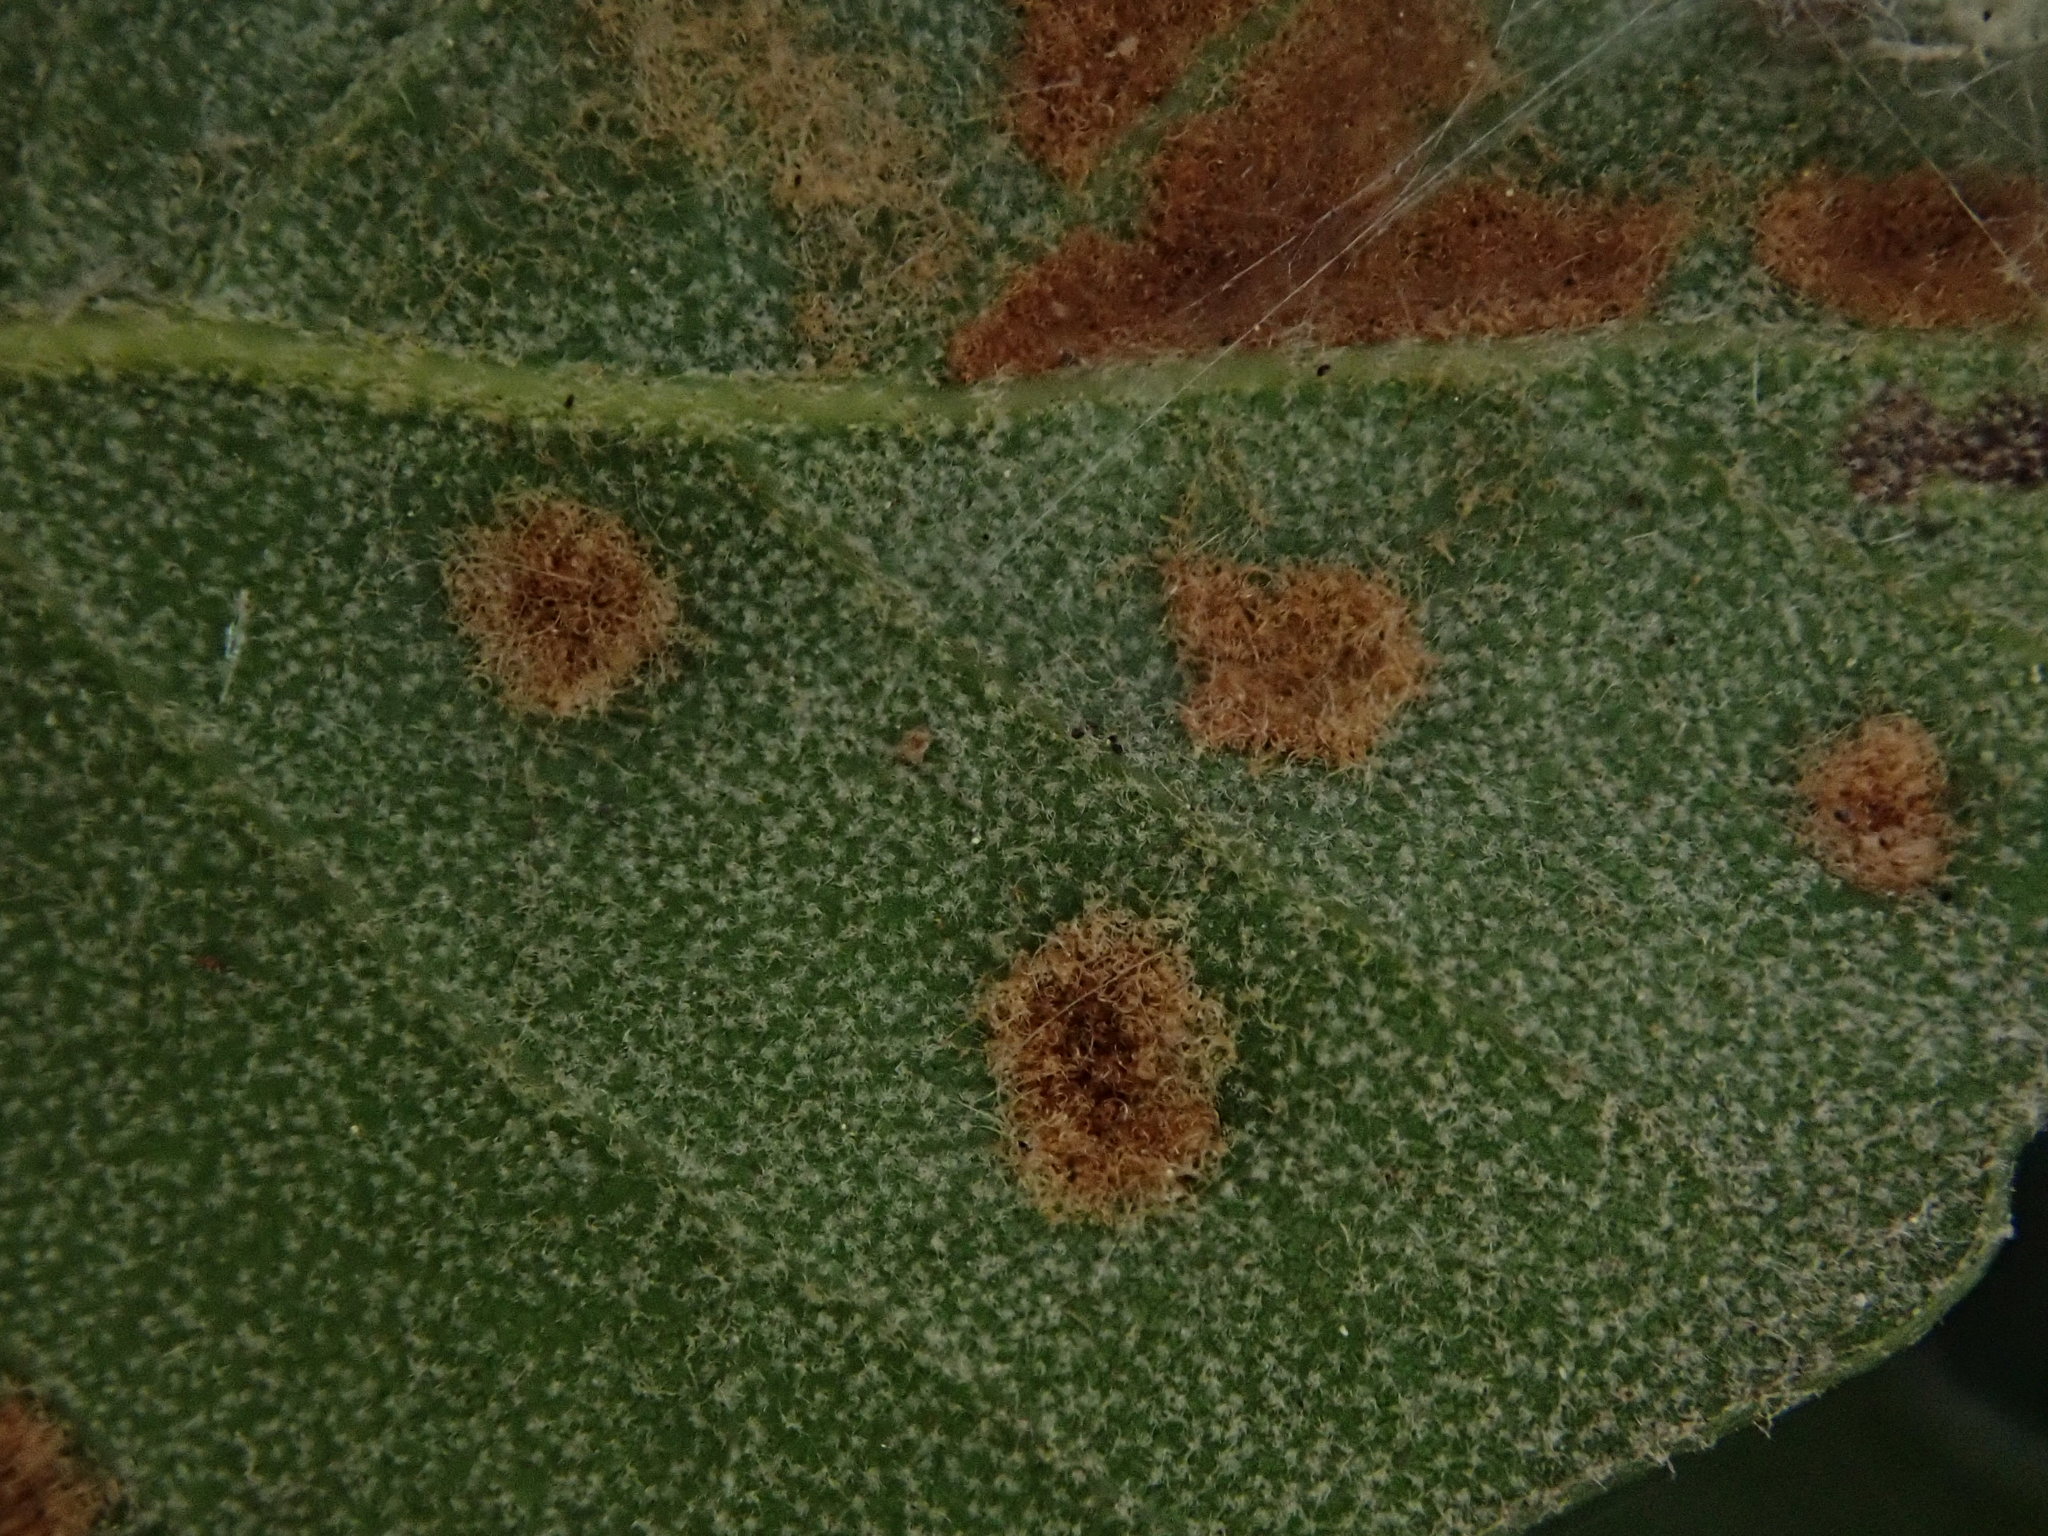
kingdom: Animalia
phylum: Arthropoda
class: Arachnida
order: Trombidiformes
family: Eriophyidae
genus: Aceria
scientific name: Aceria ilicis
